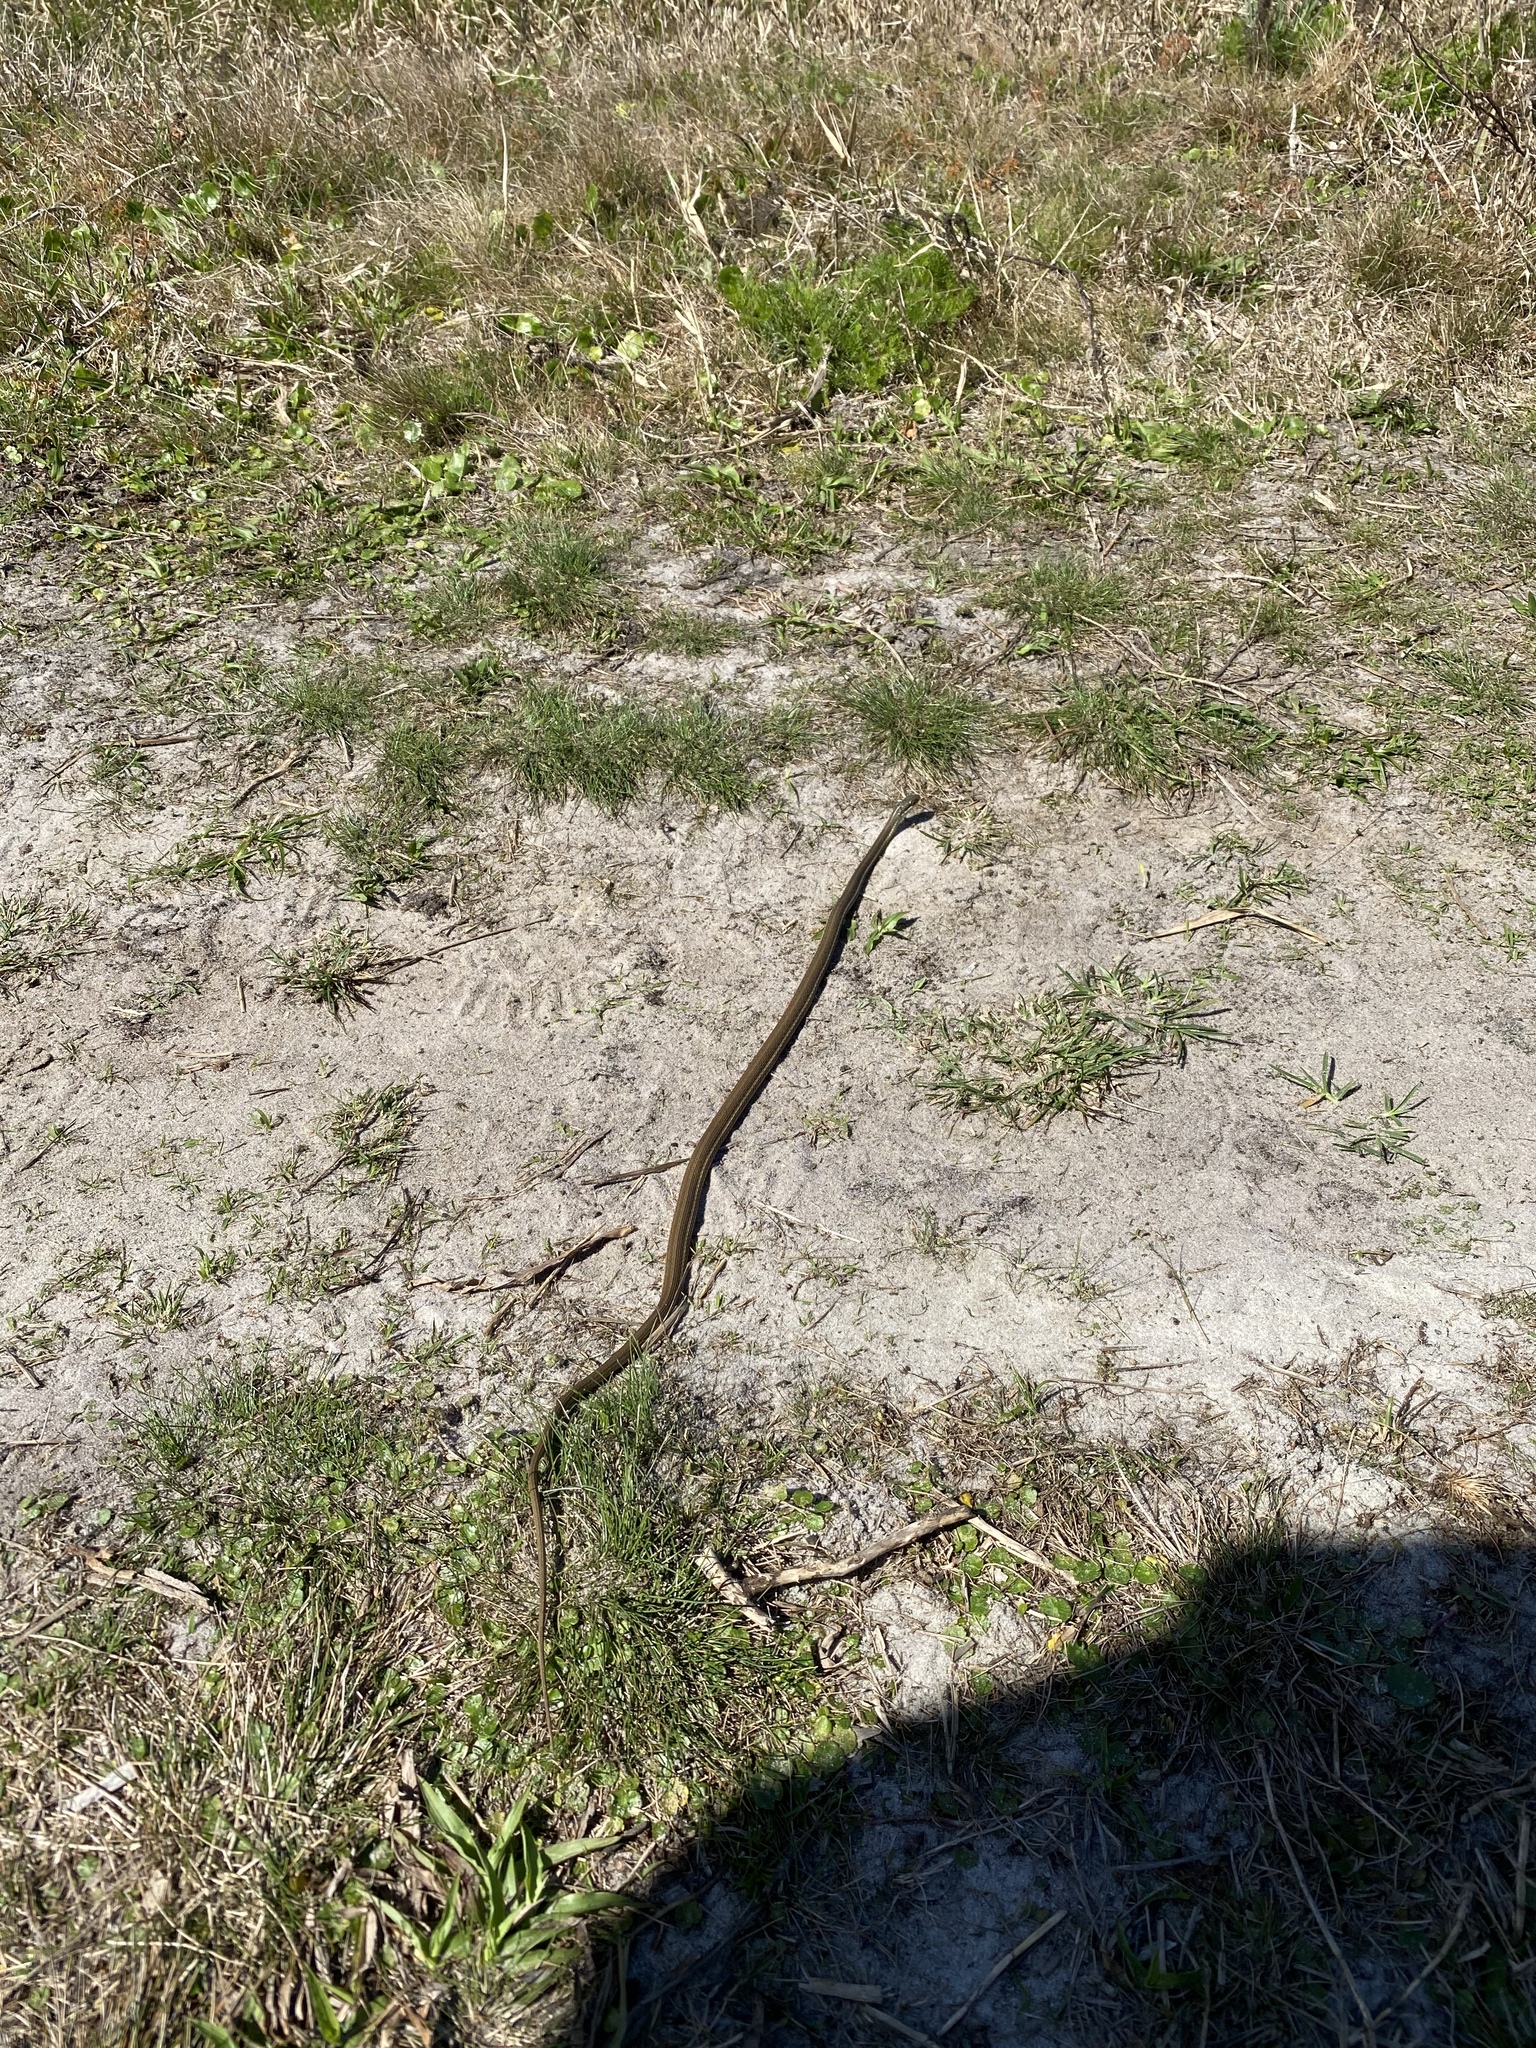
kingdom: Animalia
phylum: Chordata
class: Squamata
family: Colubridae
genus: Thamnophis
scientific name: Thamnophis saurita
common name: Eastern ribbonsnake
